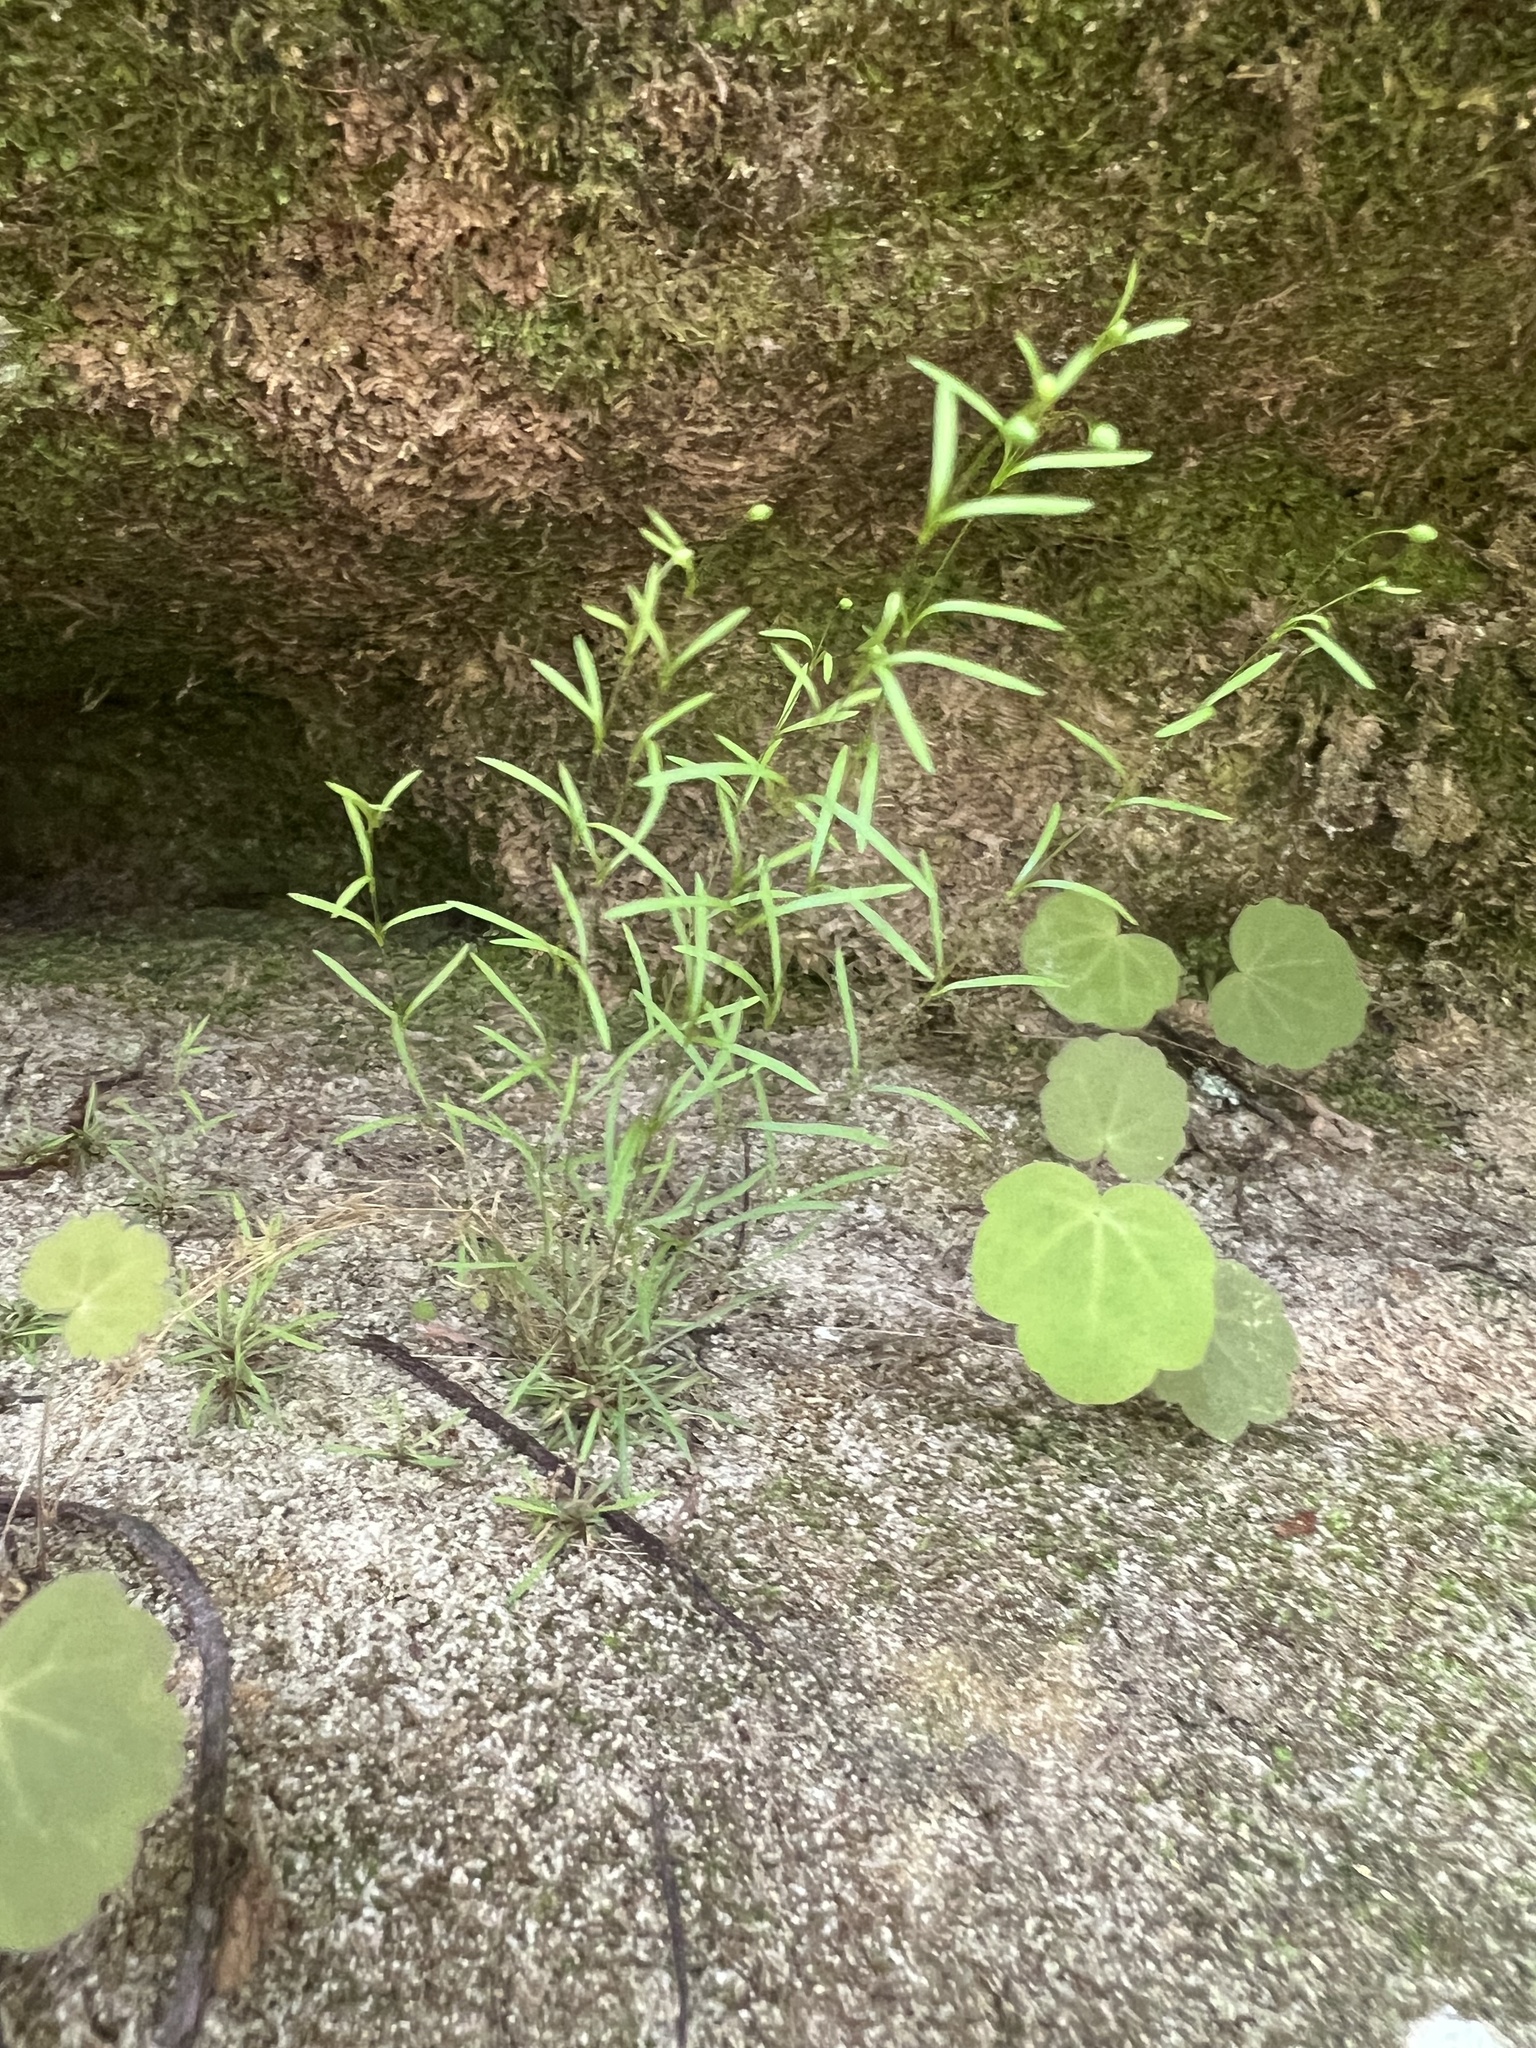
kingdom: Plantae
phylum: Tracheophyta
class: Magnoliopsida
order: Caryophyllales
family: Caryophyllaceae
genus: Geocarpon
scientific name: Geocarpon cumberlandense
